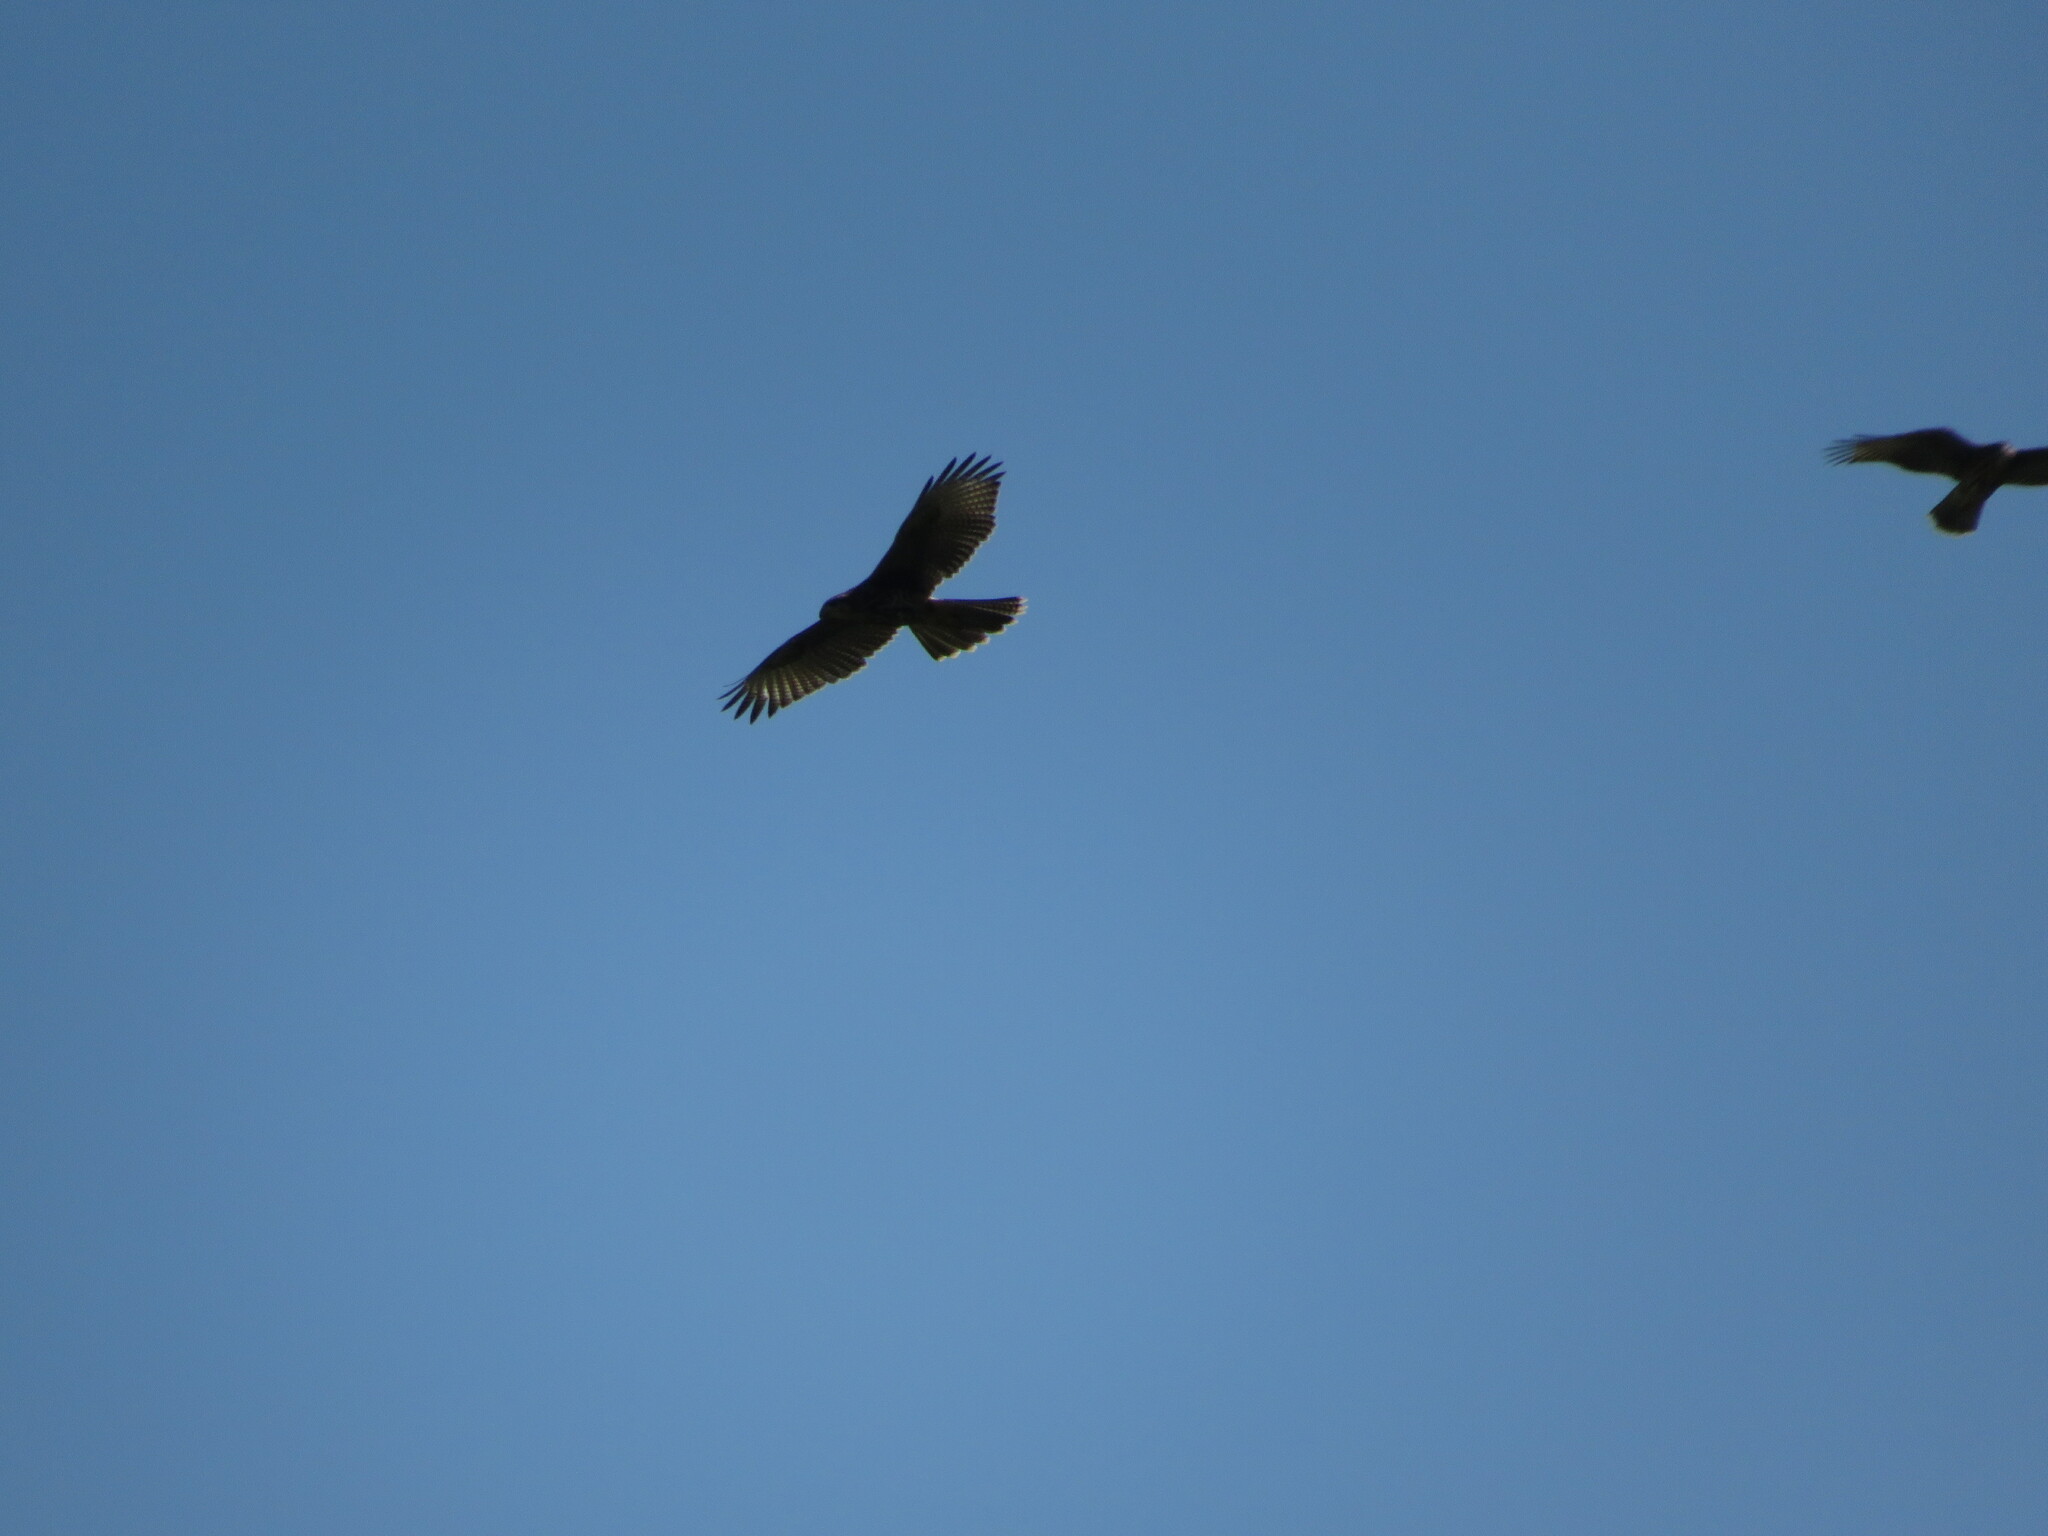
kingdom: Animalia
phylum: Chordata
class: Aves
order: Accipitriformes
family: Accipitridae
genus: Parabuteo
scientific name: Parabuteo unicinctus
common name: Harris's hawk
